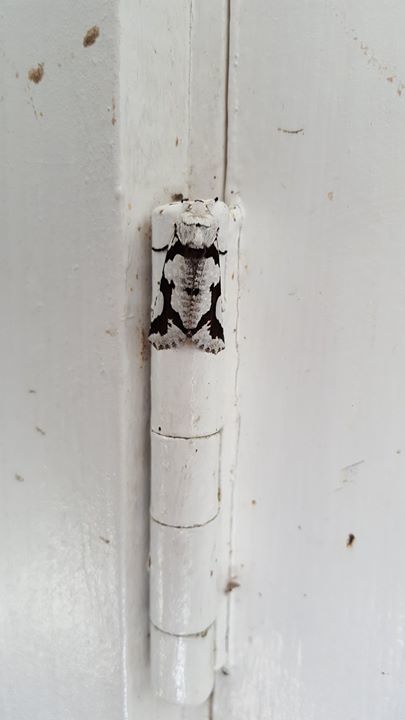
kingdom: Animalia
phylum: Arthropoda
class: Insecta
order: Lepidoptera
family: Geometridae
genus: Declana
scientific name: Declana
